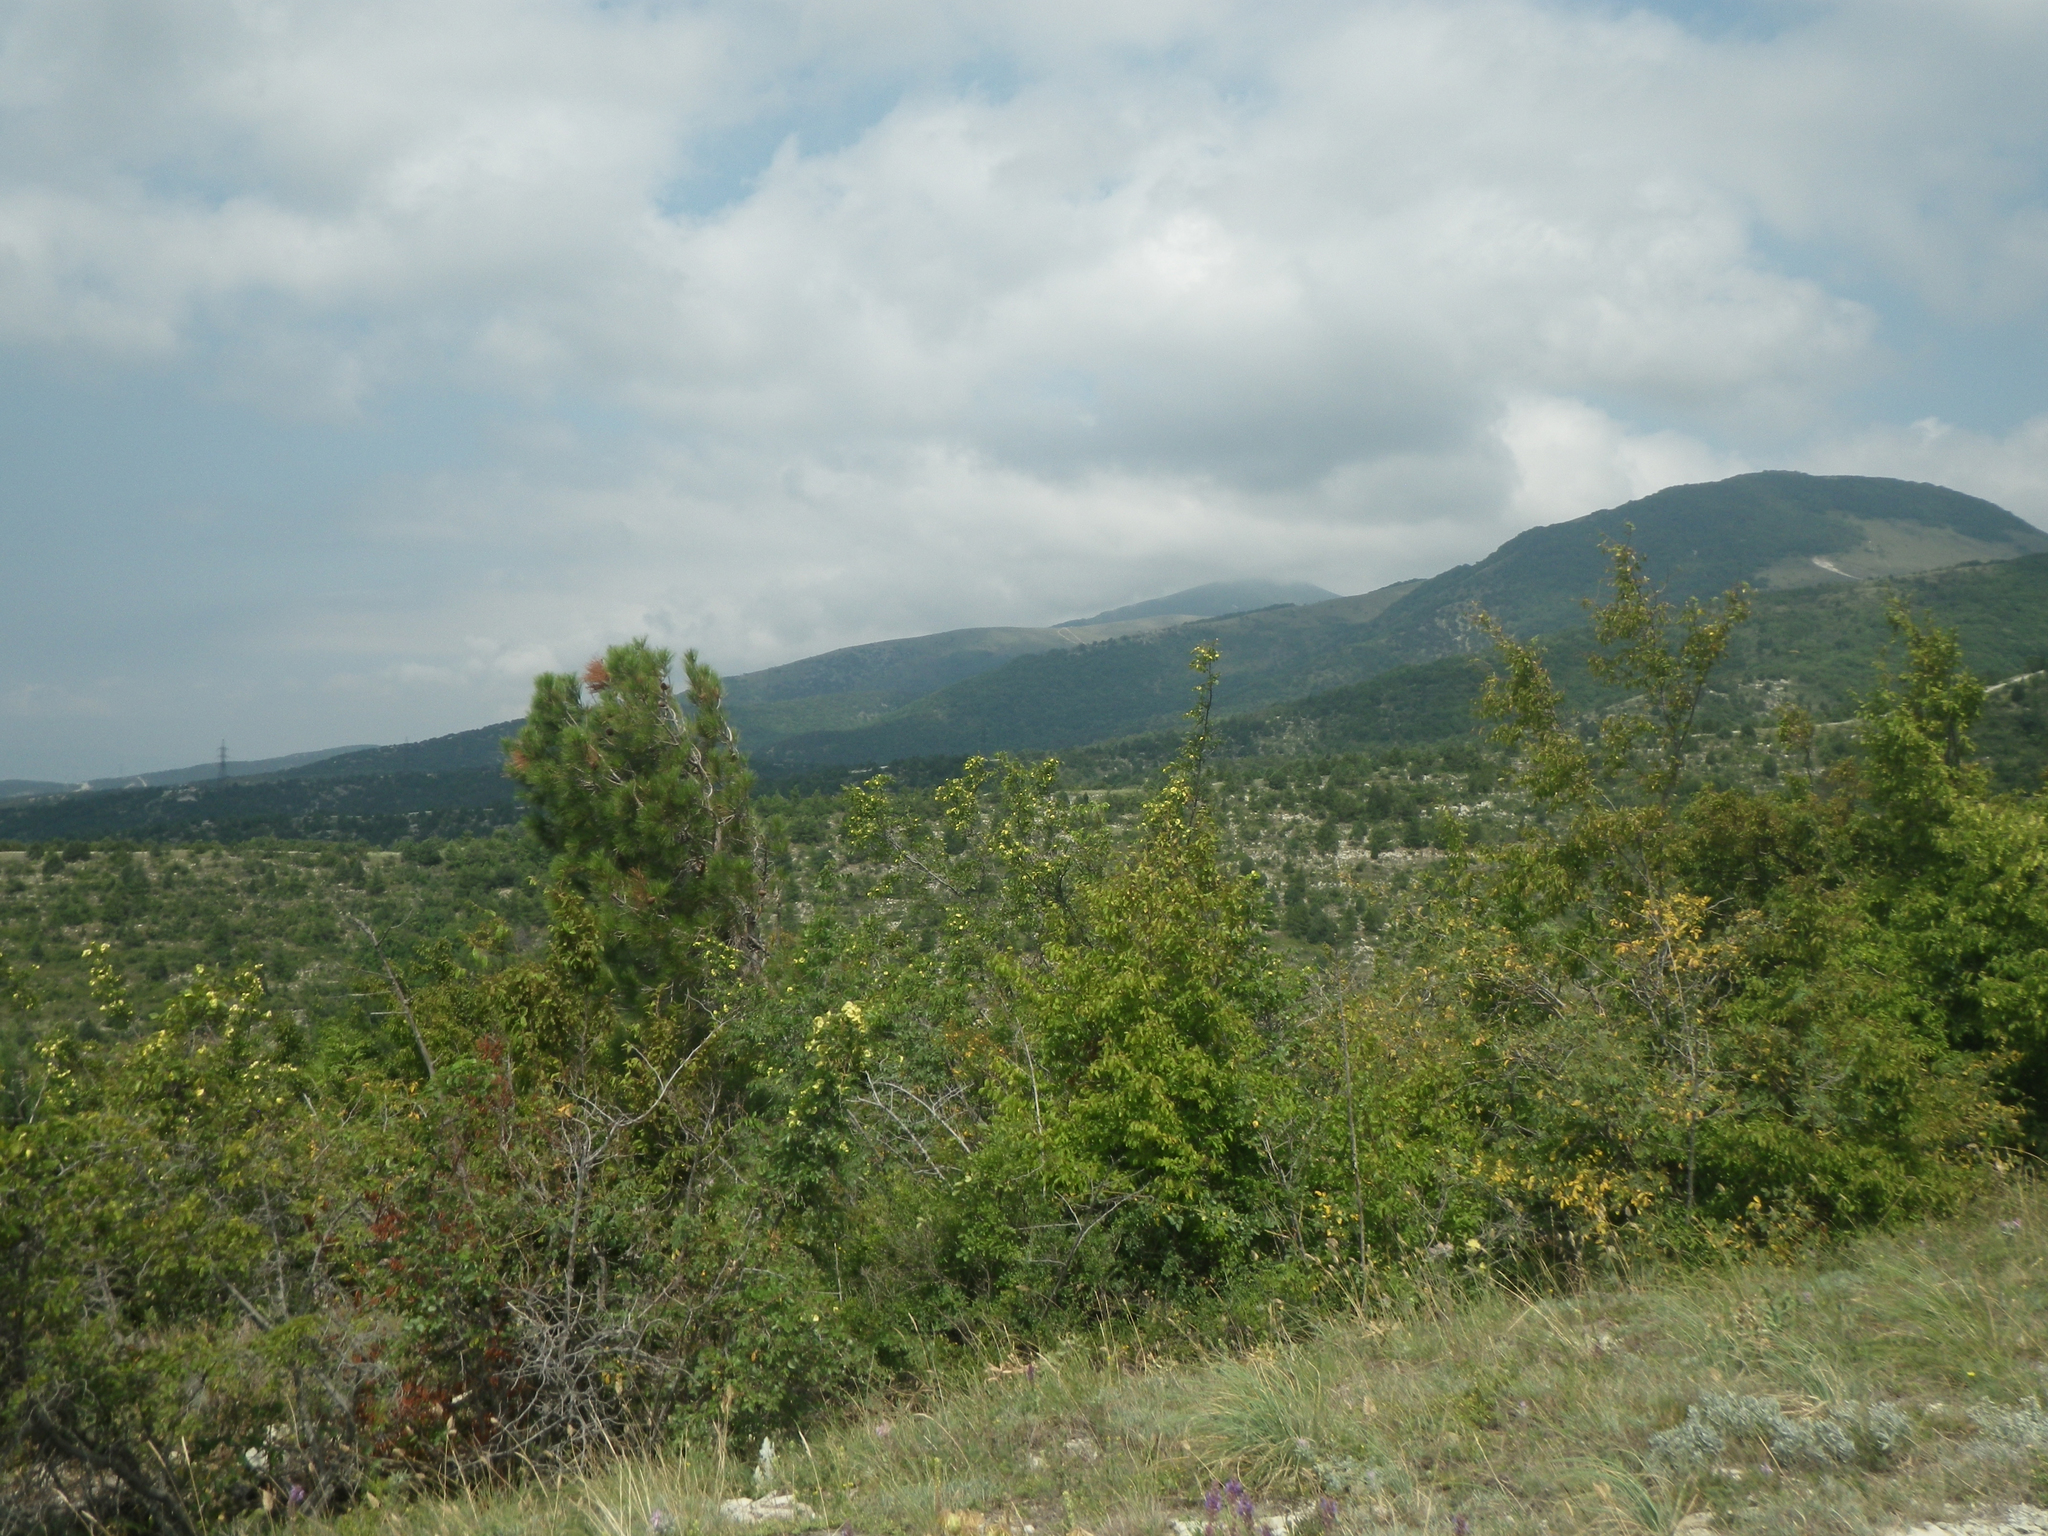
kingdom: Plantae
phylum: Tracheophyta
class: Magnoliopsida
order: Rosales
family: Rhamnaceae
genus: Paliurus
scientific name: Paliurus spina-christi
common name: Jeruselem thorn
